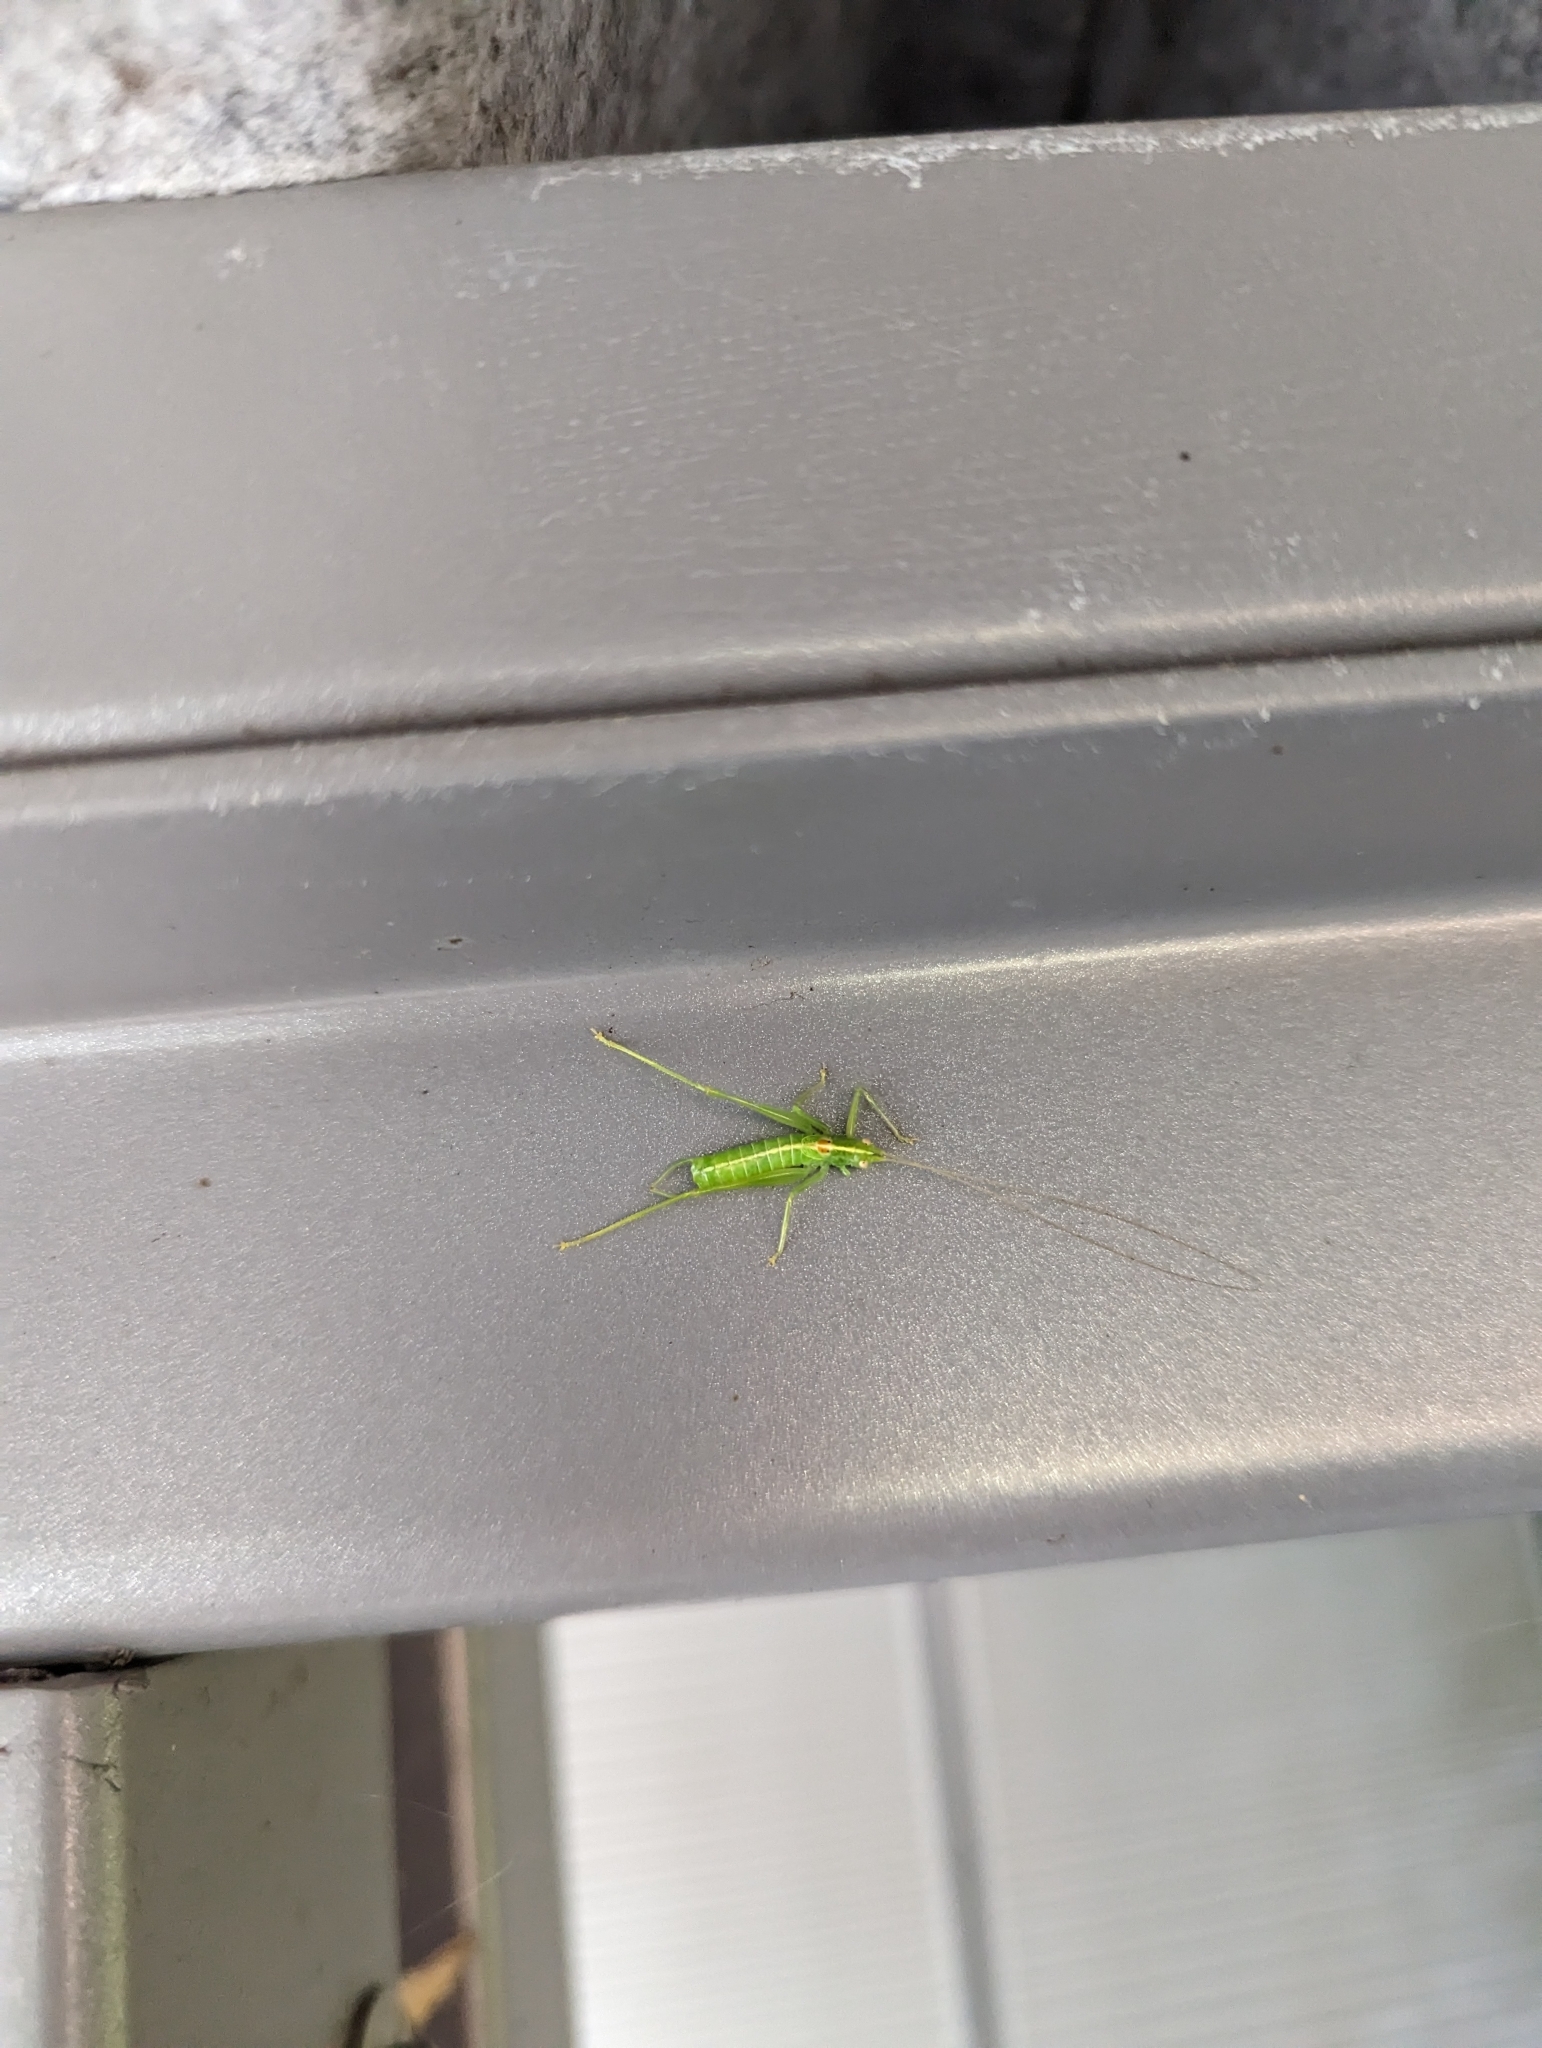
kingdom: Animalia
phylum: Arthropoda
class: Insecta
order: Orthoptera
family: Tettigoniidae
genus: Meconema
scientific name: Meconema meridionale
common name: Southern oak bush-cricket
